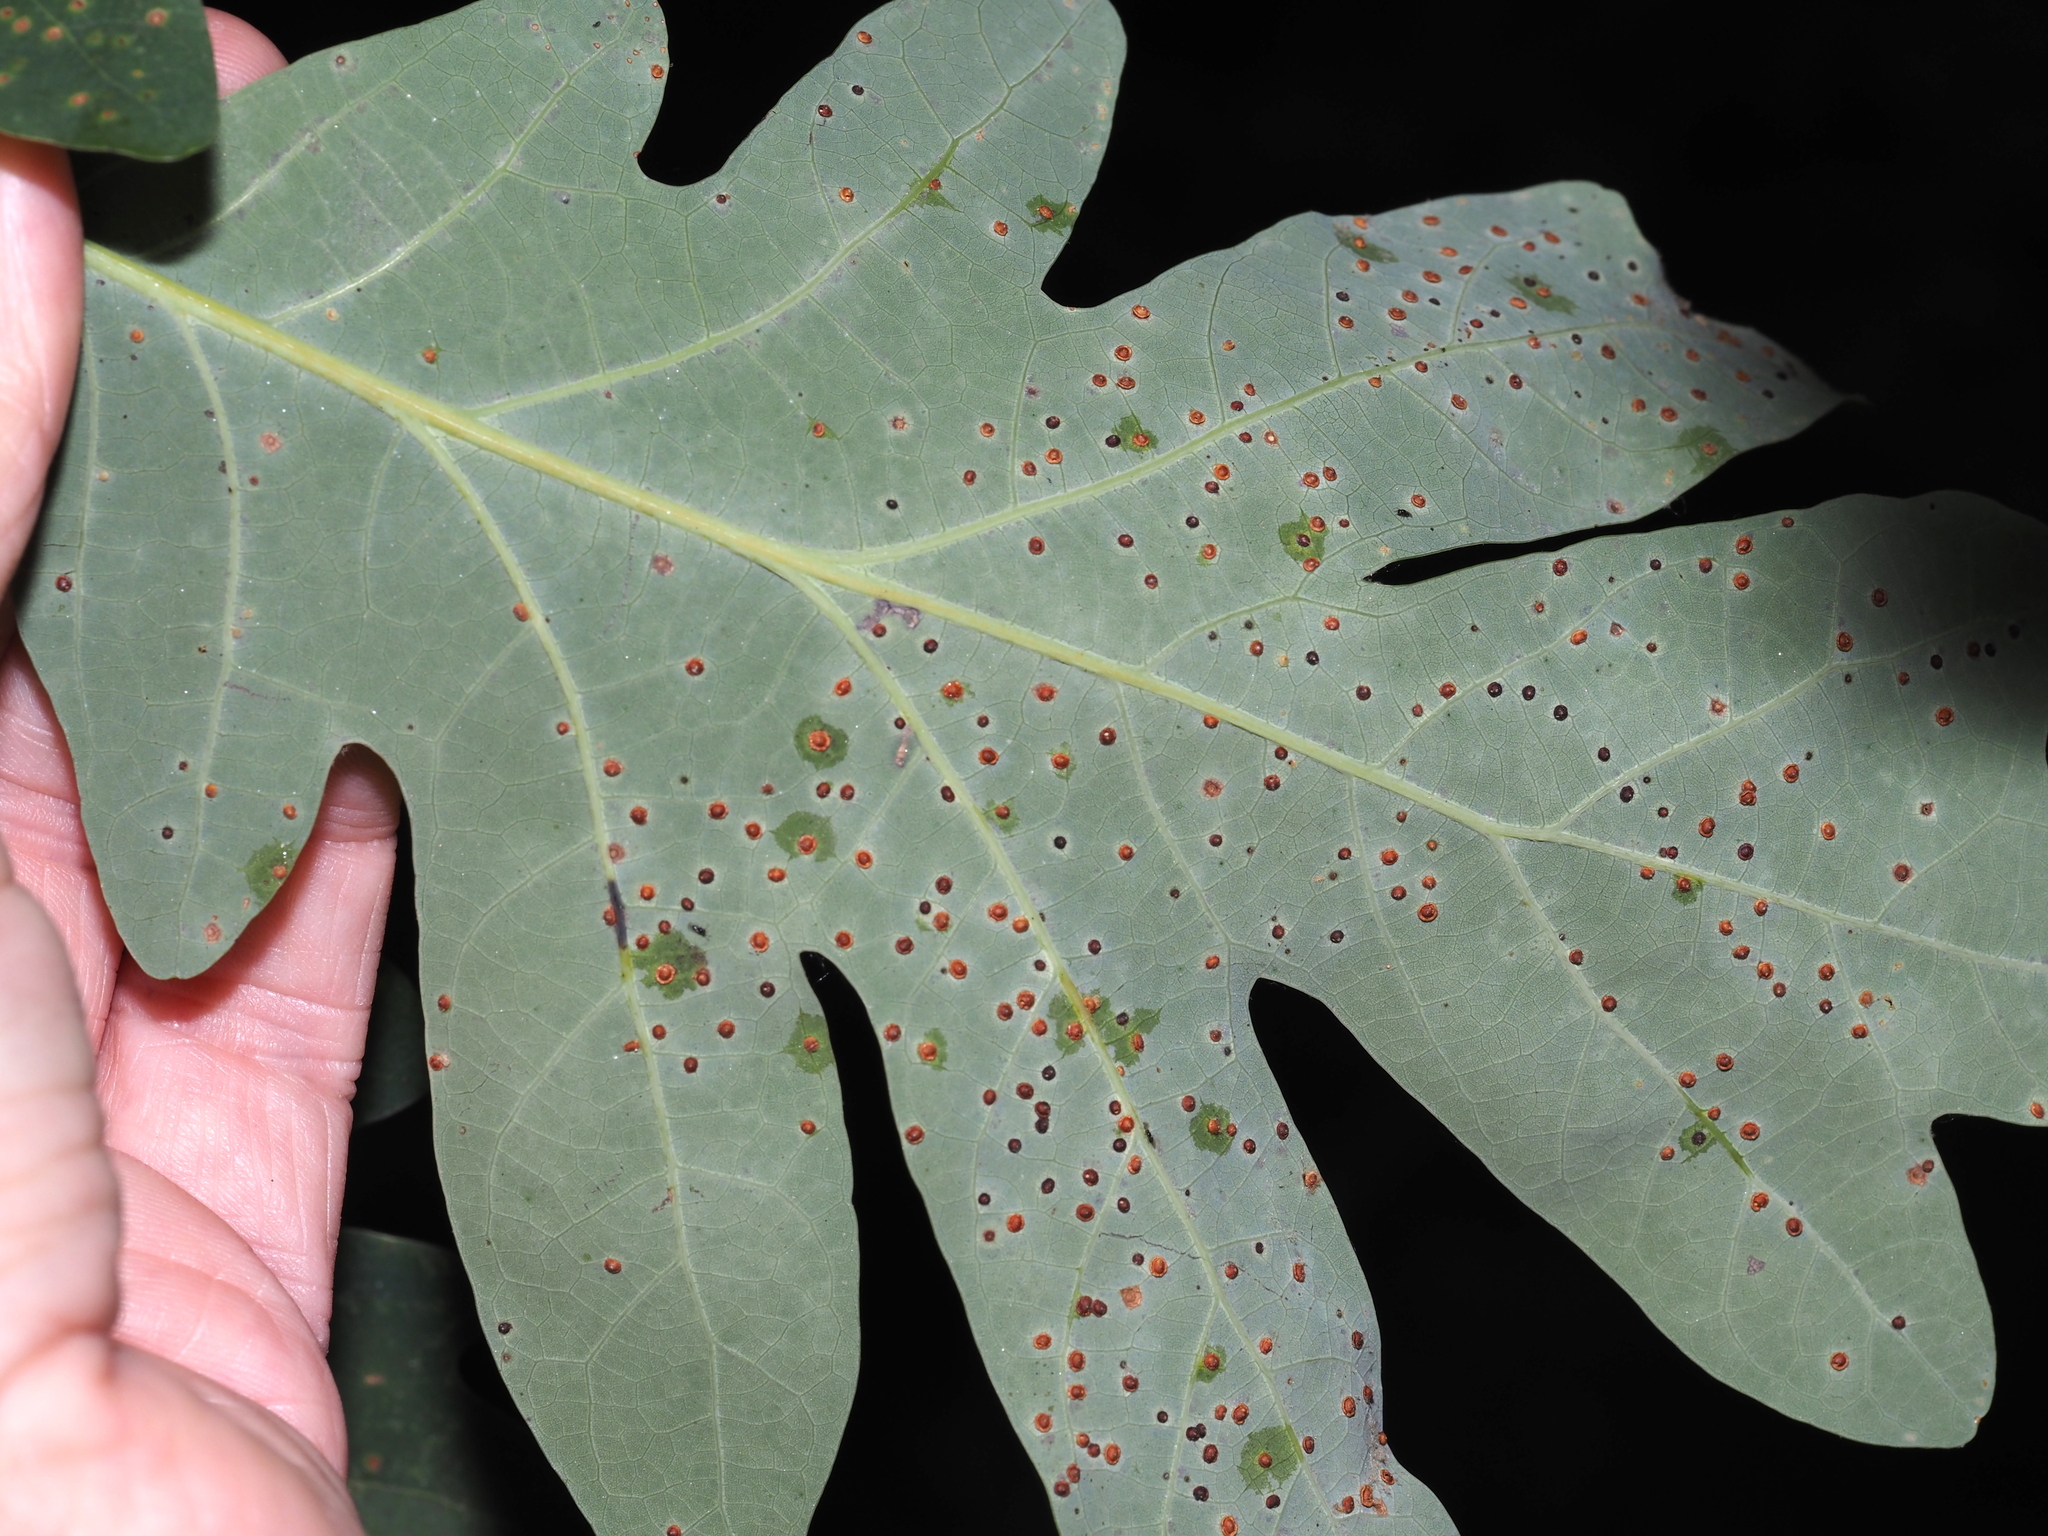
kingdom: Animalia
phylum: Arthropoda
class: Insecta
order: Hymenoptera
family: Cynipidae
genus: Neuroterus
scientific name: Neuroterus
